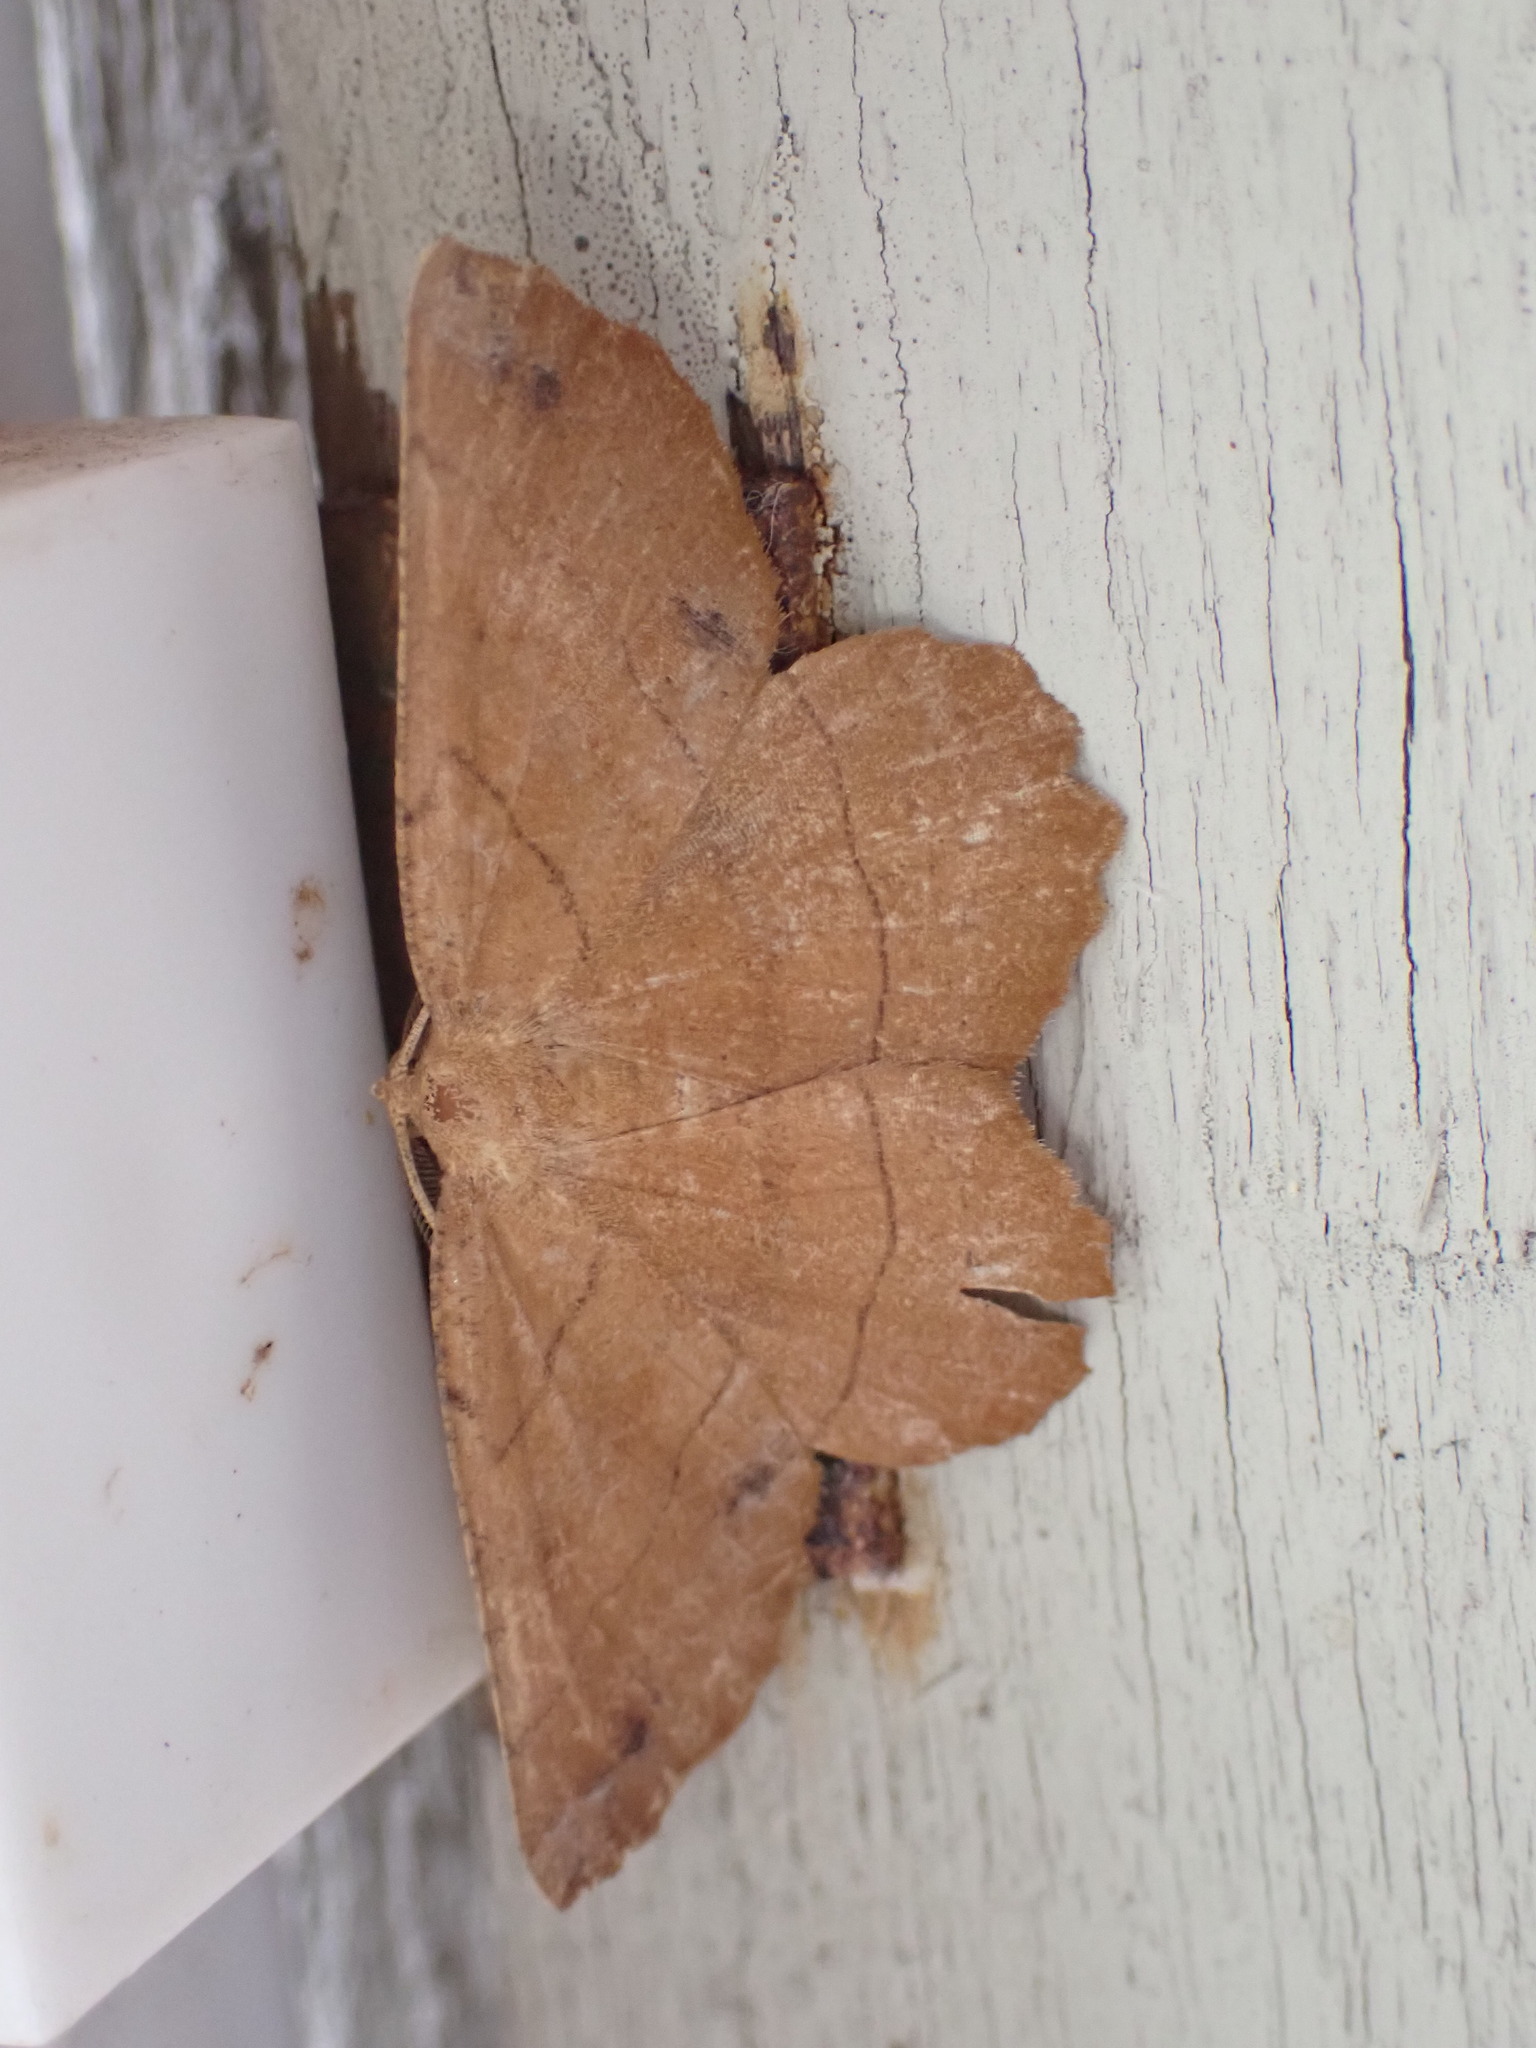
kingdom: Animalia
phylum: Arthropoda
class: Insecta
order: Lepidoptera
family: Geometridae
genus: Euchlaena
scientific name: Euchlaena johnsonaria
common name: Johnson's euchlaena
